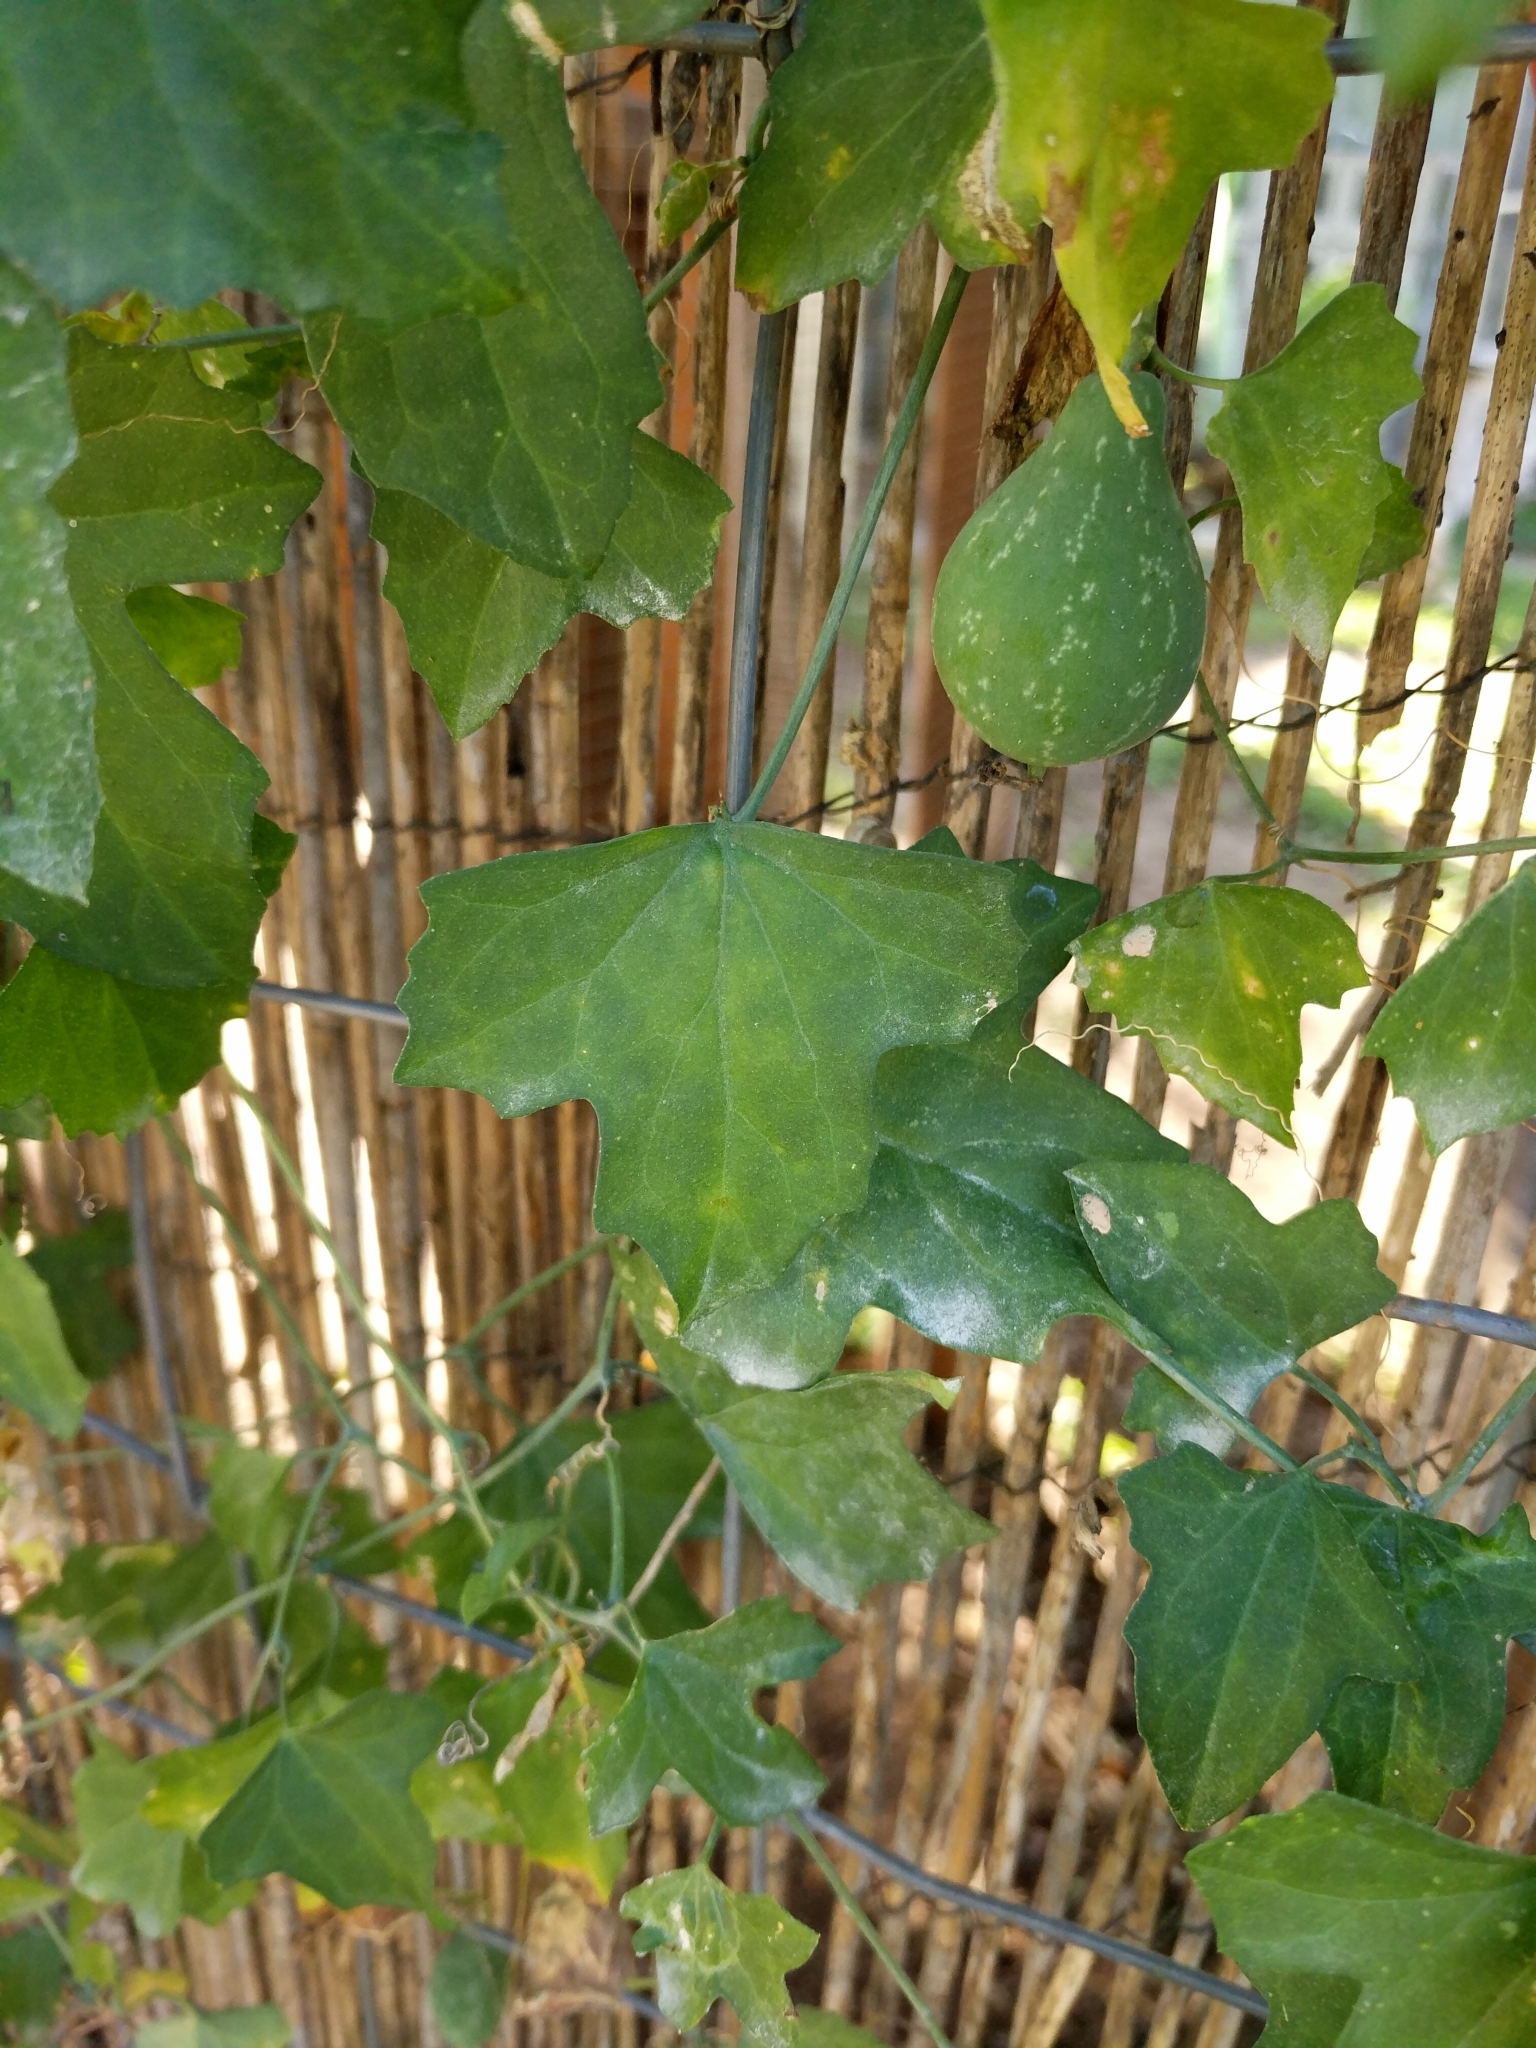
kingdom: Plantae
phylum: Tracheophyta
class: Magnoliopsida
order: Cucurbitales
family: Cucurbitaceae
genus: Ibervillea
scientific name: Ibervillea lindheimeri
